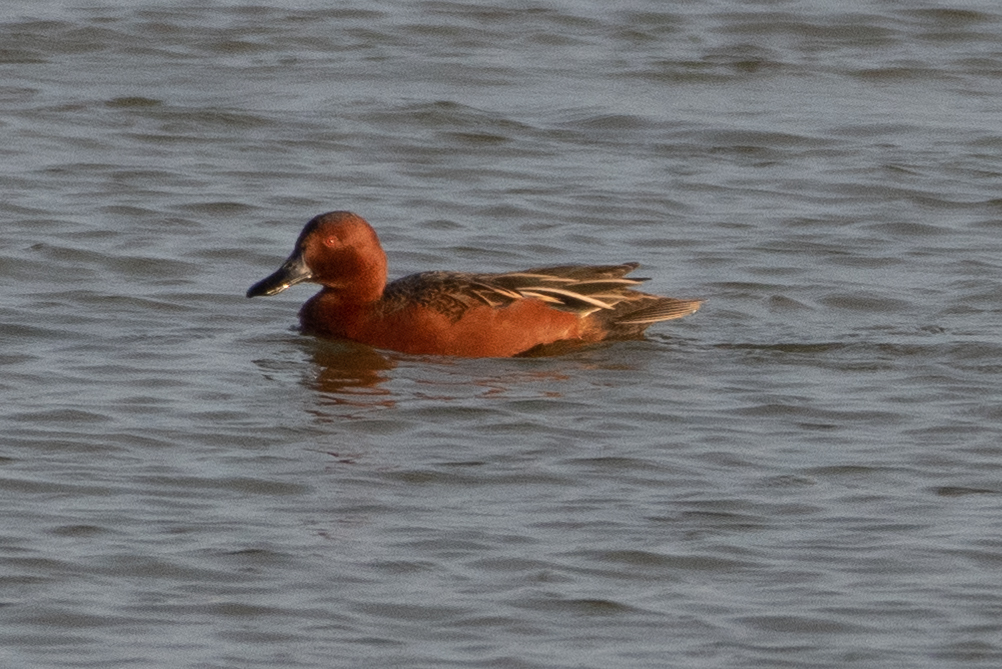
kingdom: Animalia
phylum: Chordata
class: Aves
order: Anseriformes
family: Anatidae
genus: Spatula
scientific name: Spatula cyanoptera
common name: Cinnamon teal
